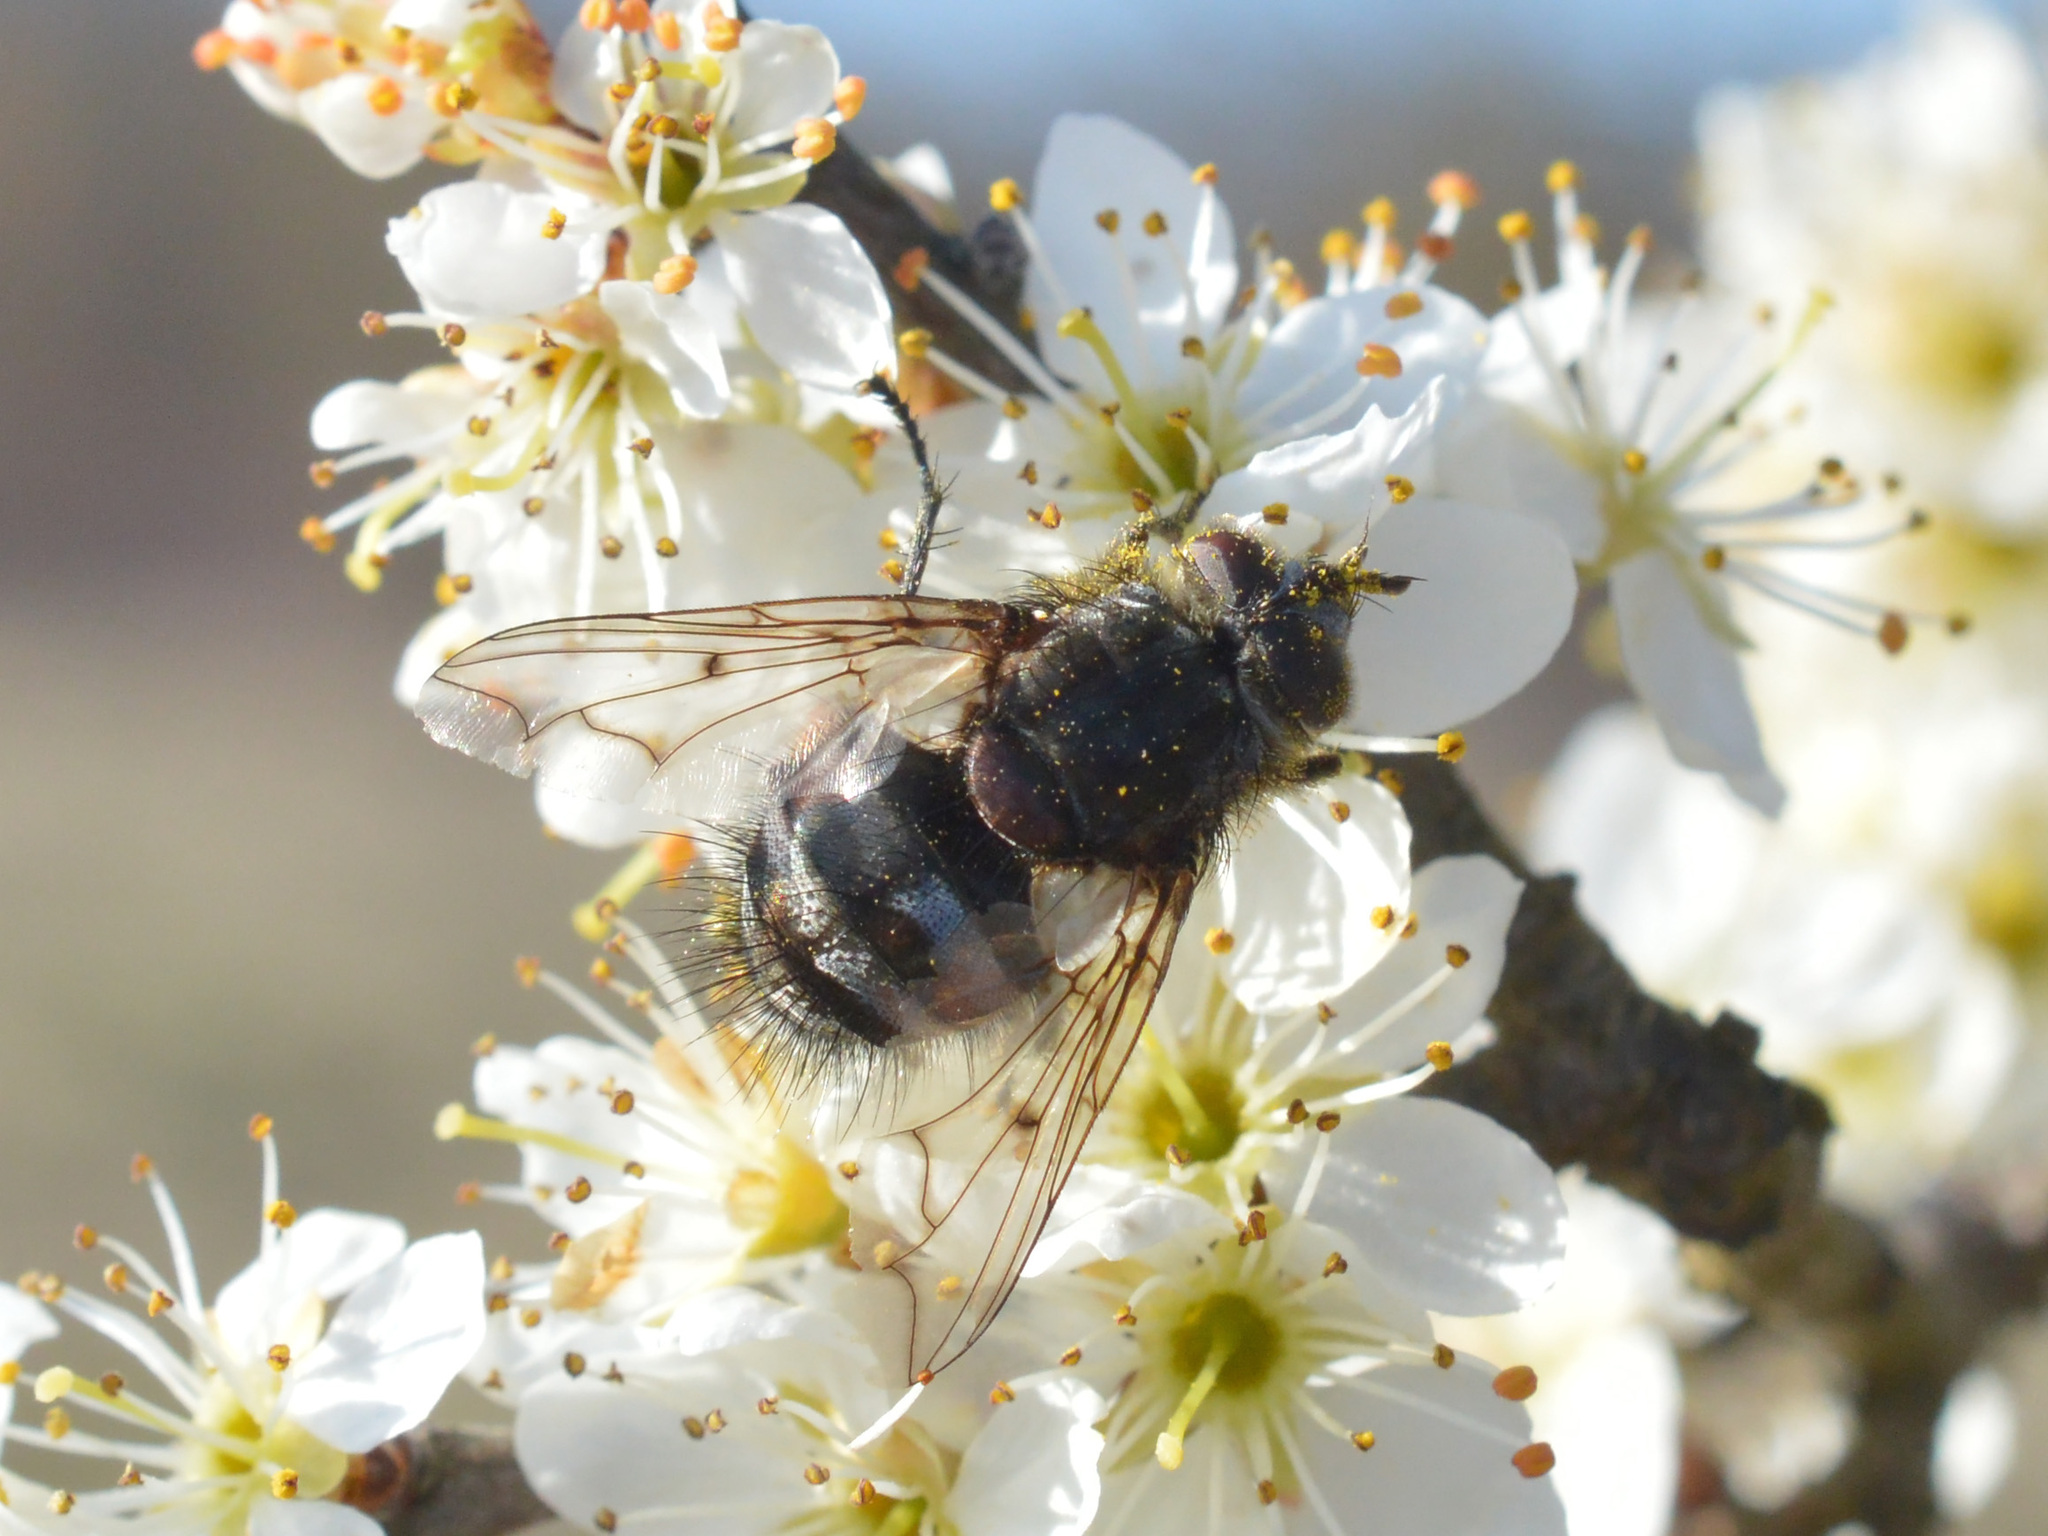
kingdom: Animalia
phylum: Arthropoda
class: Insecta
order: Diptera
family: Tachinidae
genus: Panzeria
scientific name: Panzeria puparum
